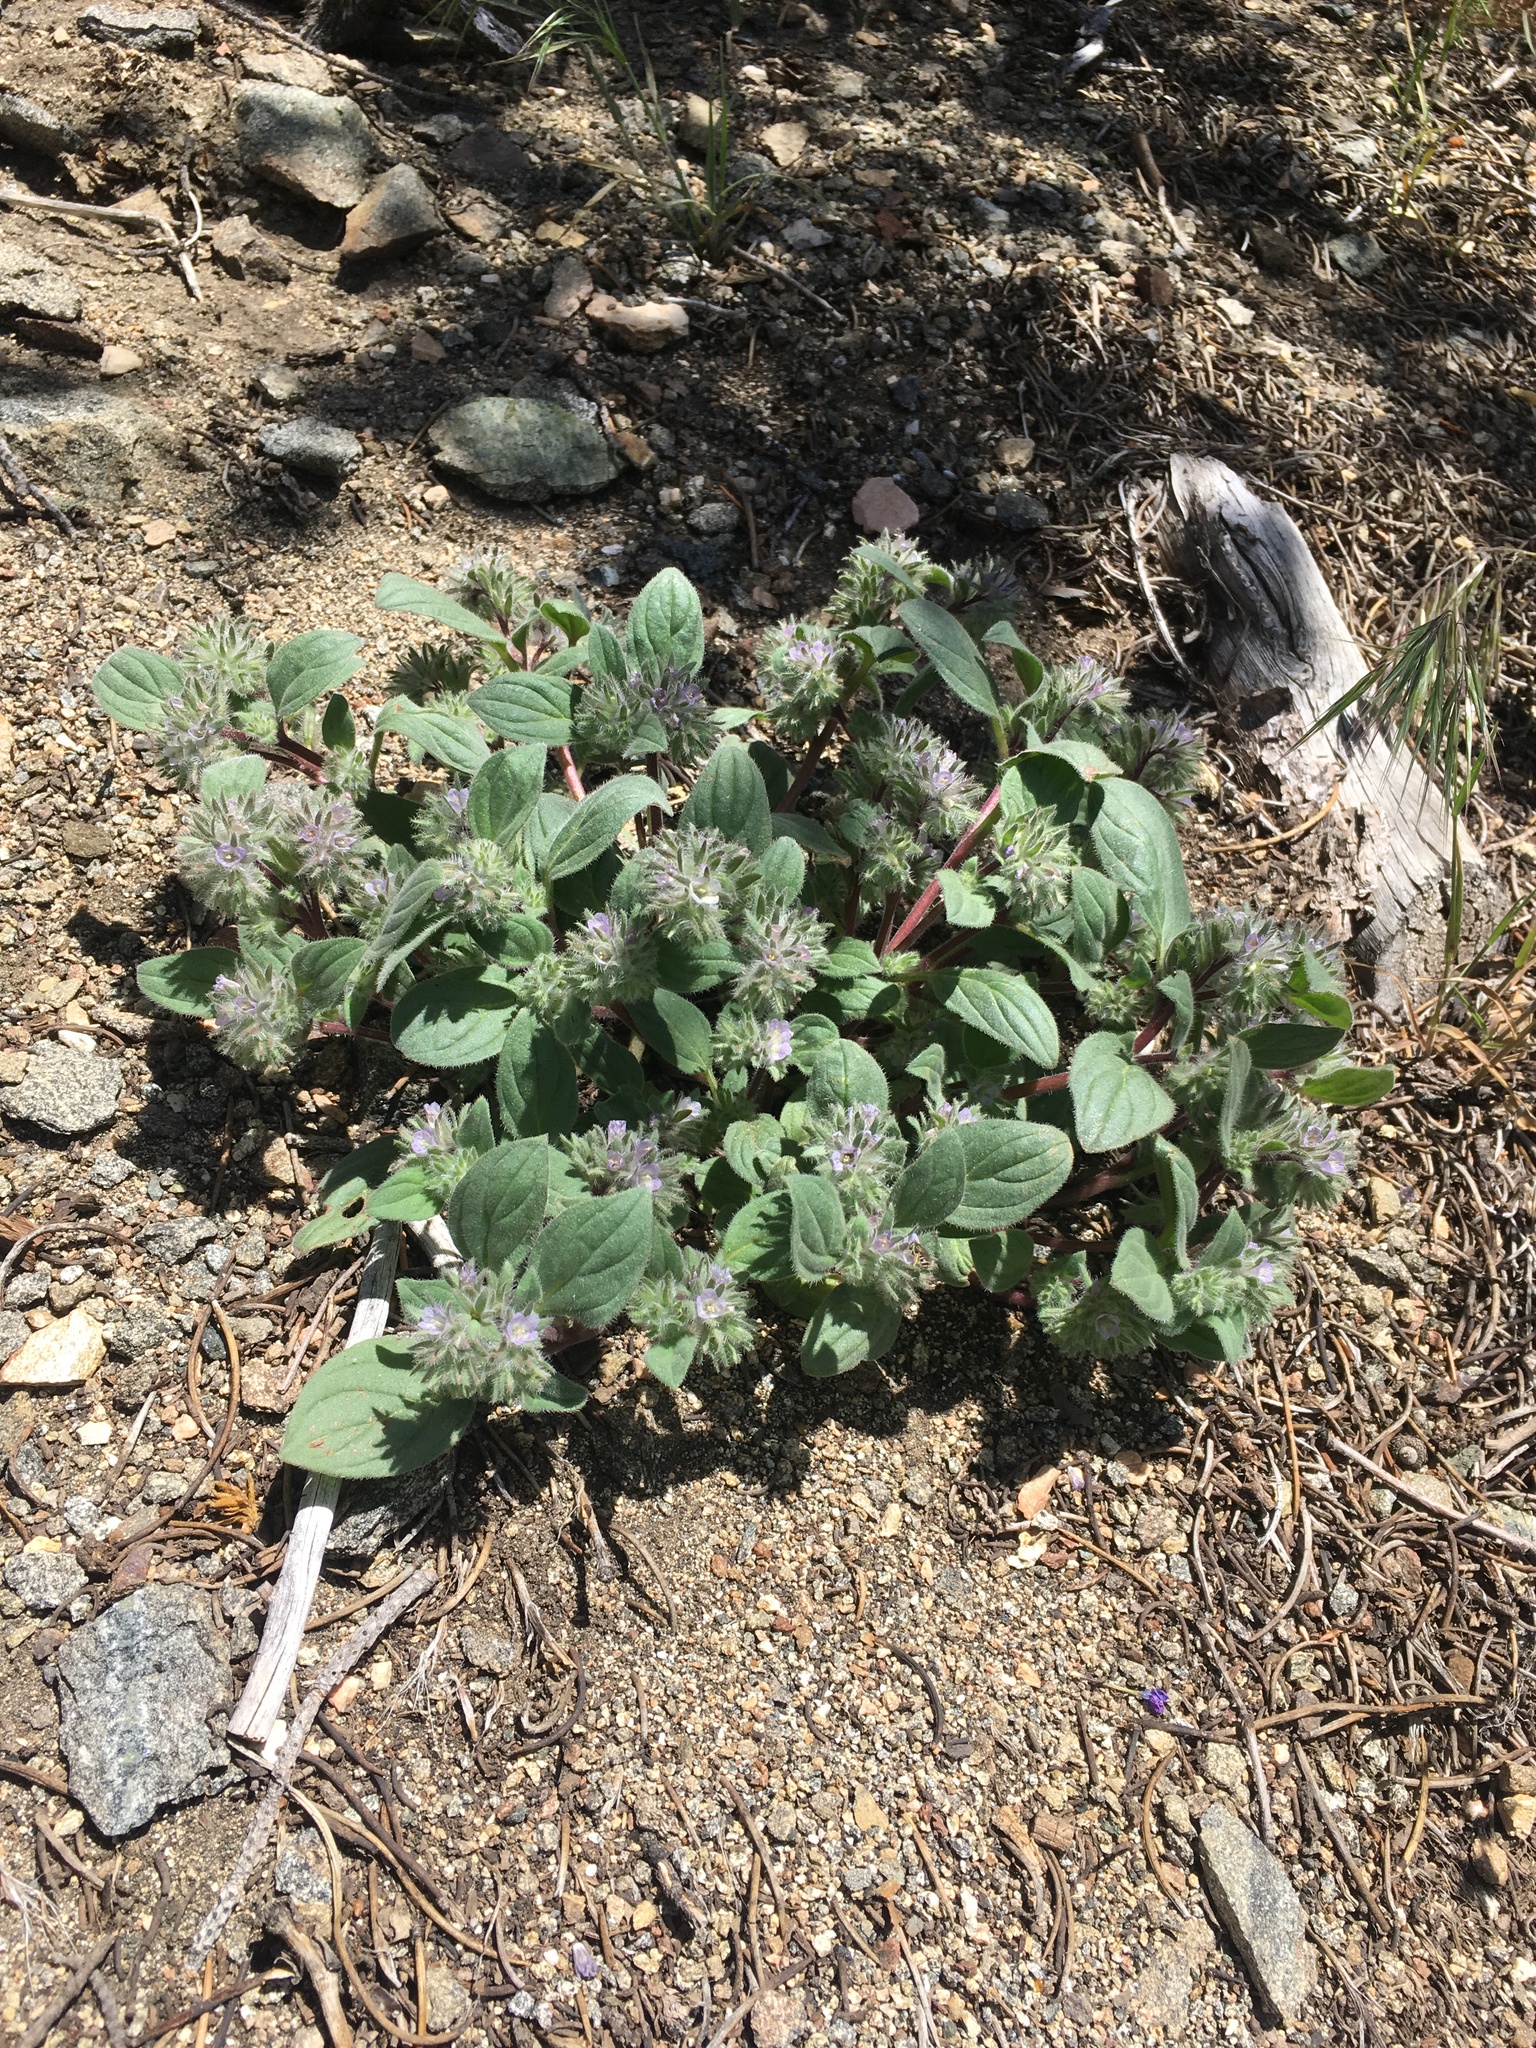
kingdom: Plantae
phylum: Tracheophyta
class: Magnoliopsida
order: Boraginales
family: Hydrophyllaceae
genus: Phacelia
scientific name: Phacelia novenmillensis
